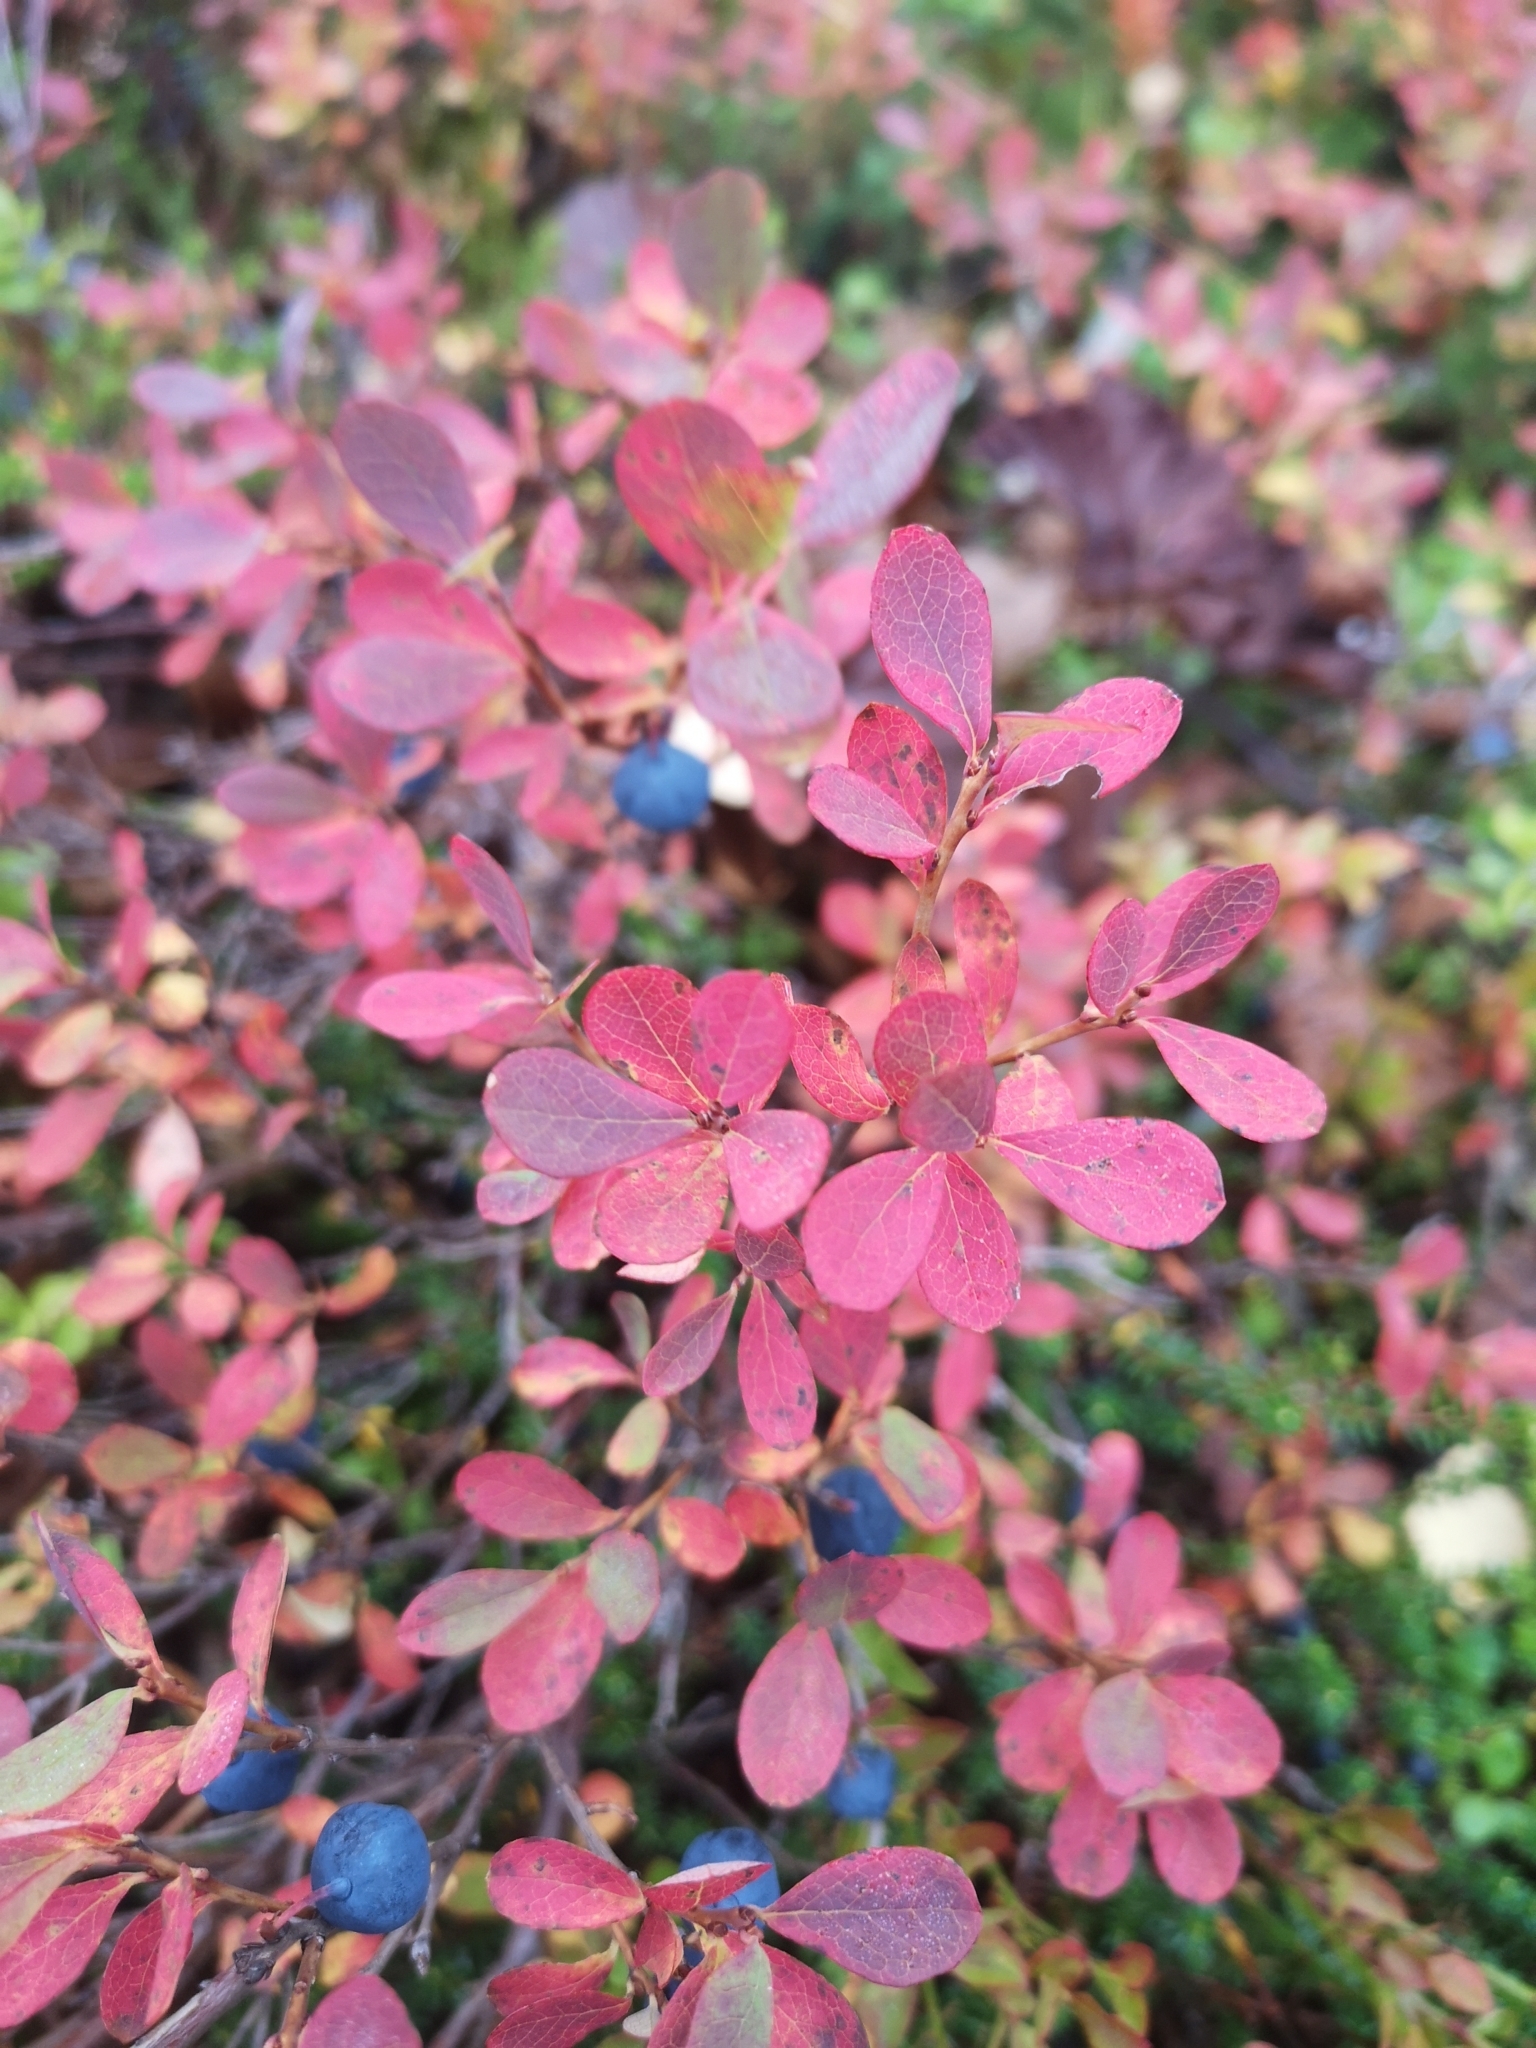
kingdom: Plantae
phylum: Tracheophyta
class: Magnoliopsida
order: Ericales
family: Ericaceae
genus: Vaccinium
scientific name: Vaccinium uliginosum
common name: Bog bilberry
